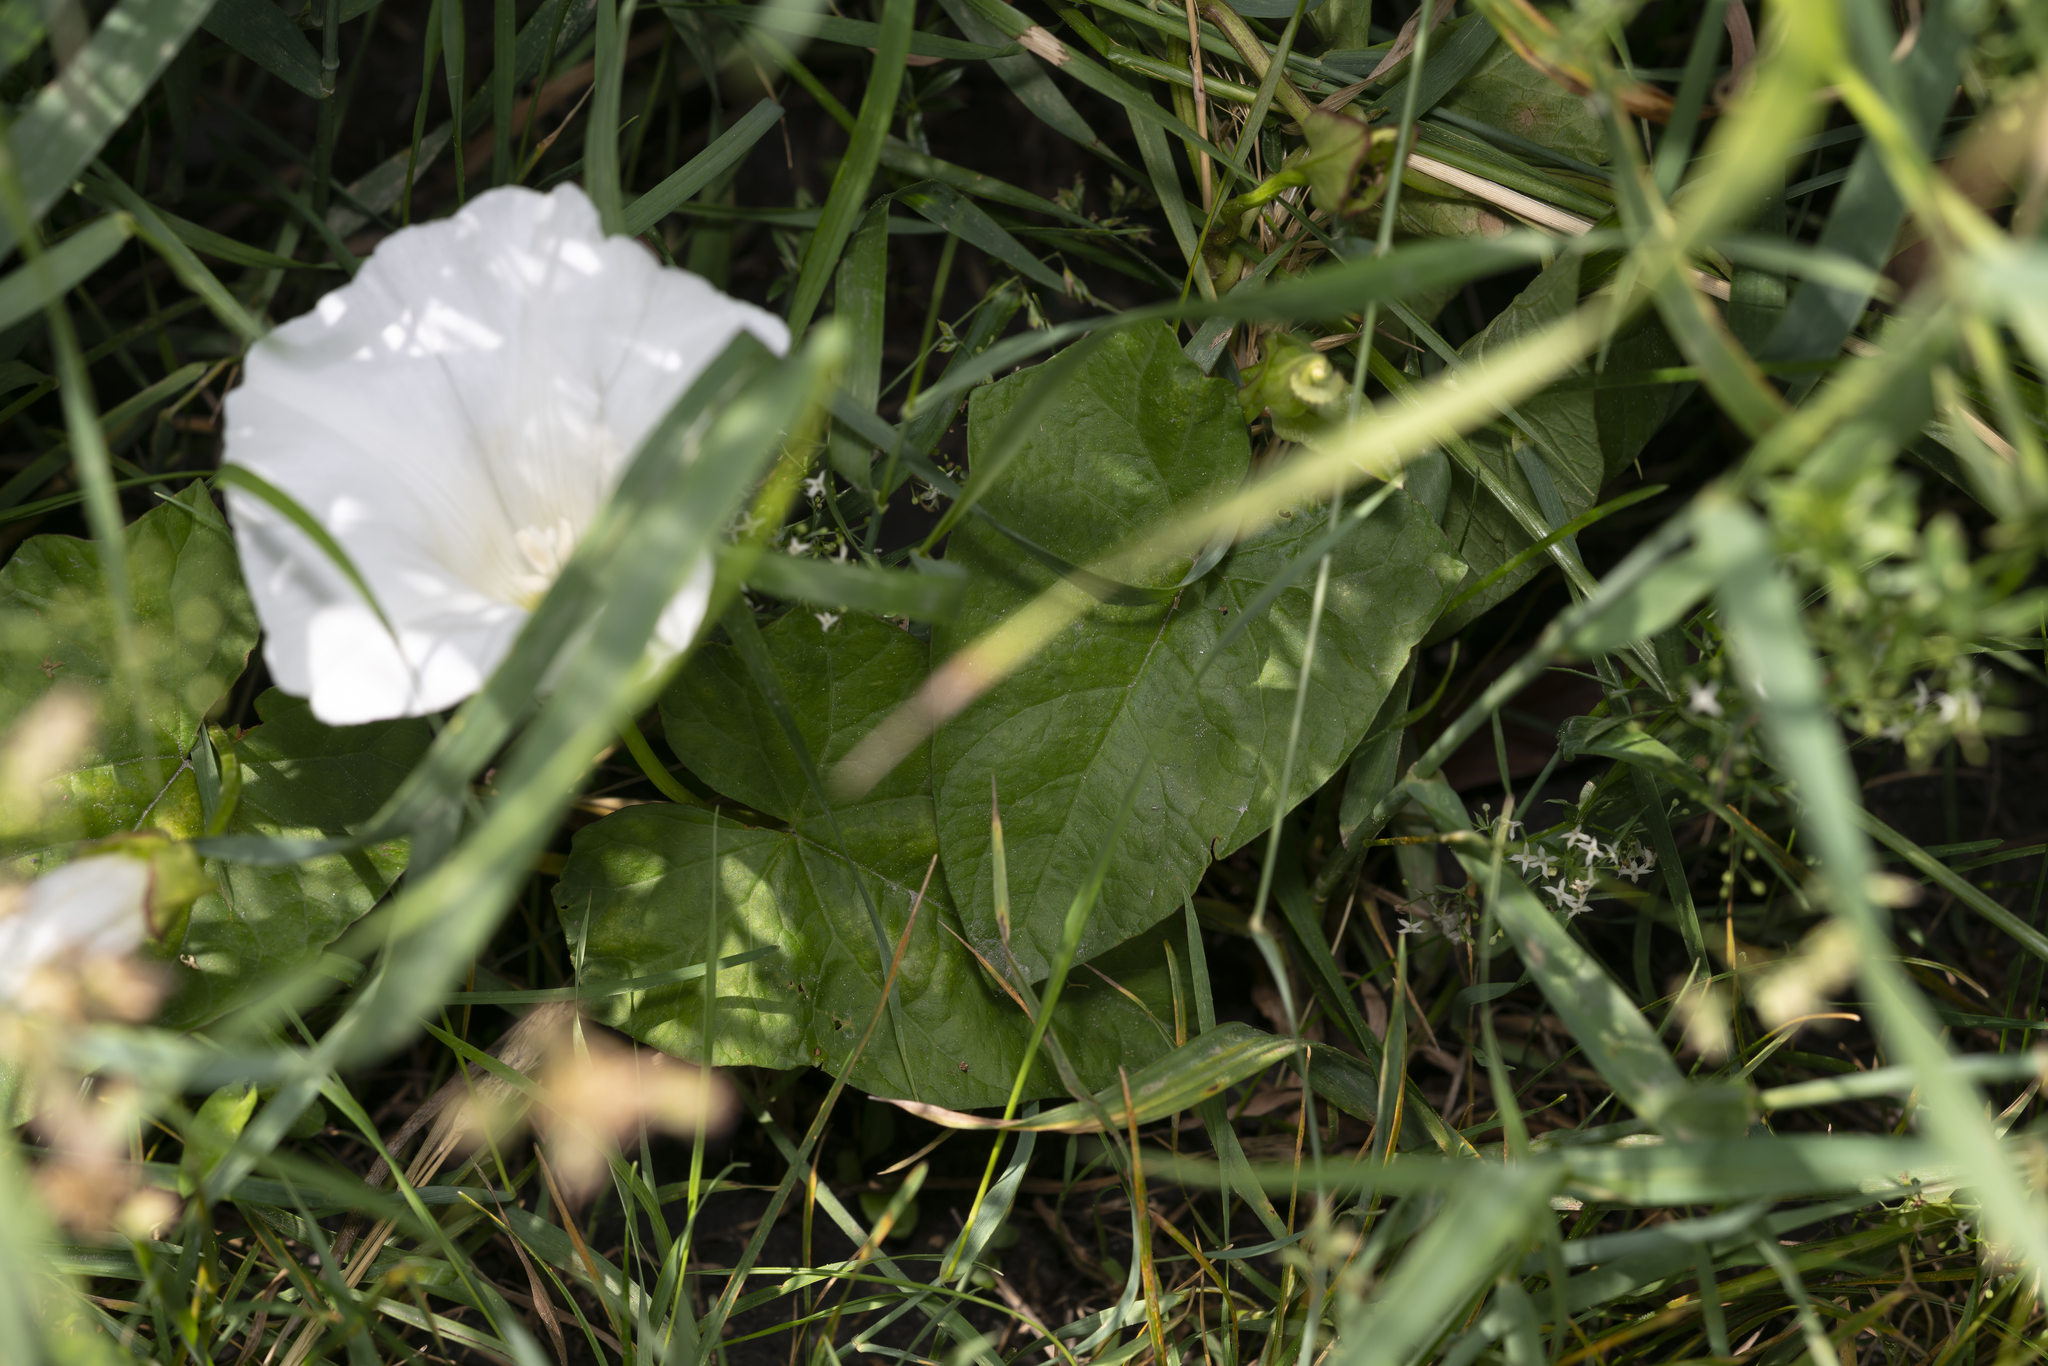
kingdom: Plantae
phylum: Tracheophyta
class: Magnoliopsida
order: Solanales
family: Convolvulaceae
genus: Calystegia
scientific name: Calystegia sepium
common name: Hedge bindweed
